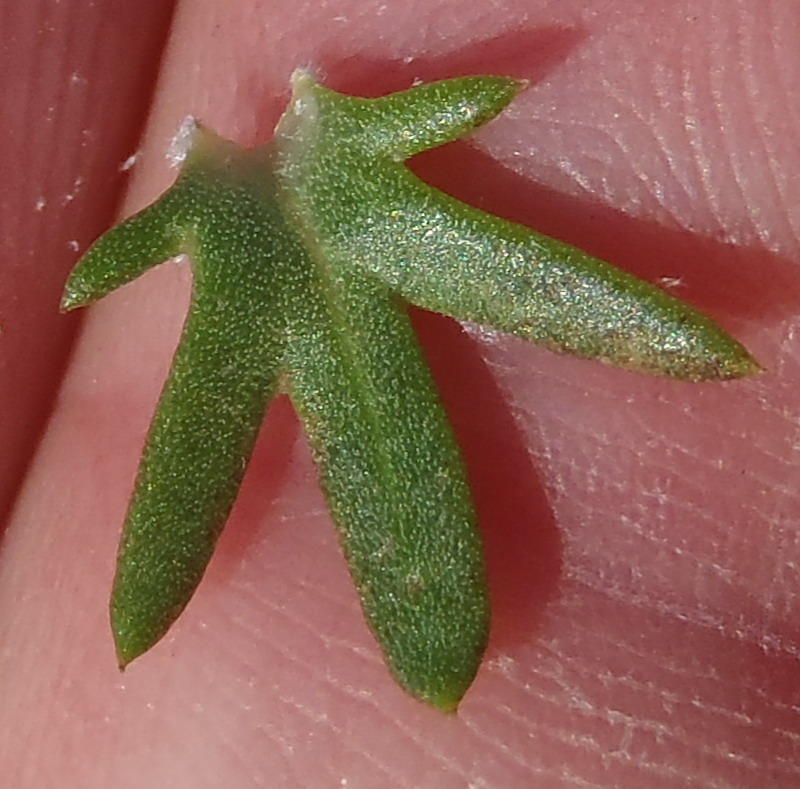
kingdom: Plantae
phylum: Tracheophyta
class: Magnoliopsida
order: Asterales
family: Asteraceae
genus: Athanasia
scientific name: Athanasia trifurcata
